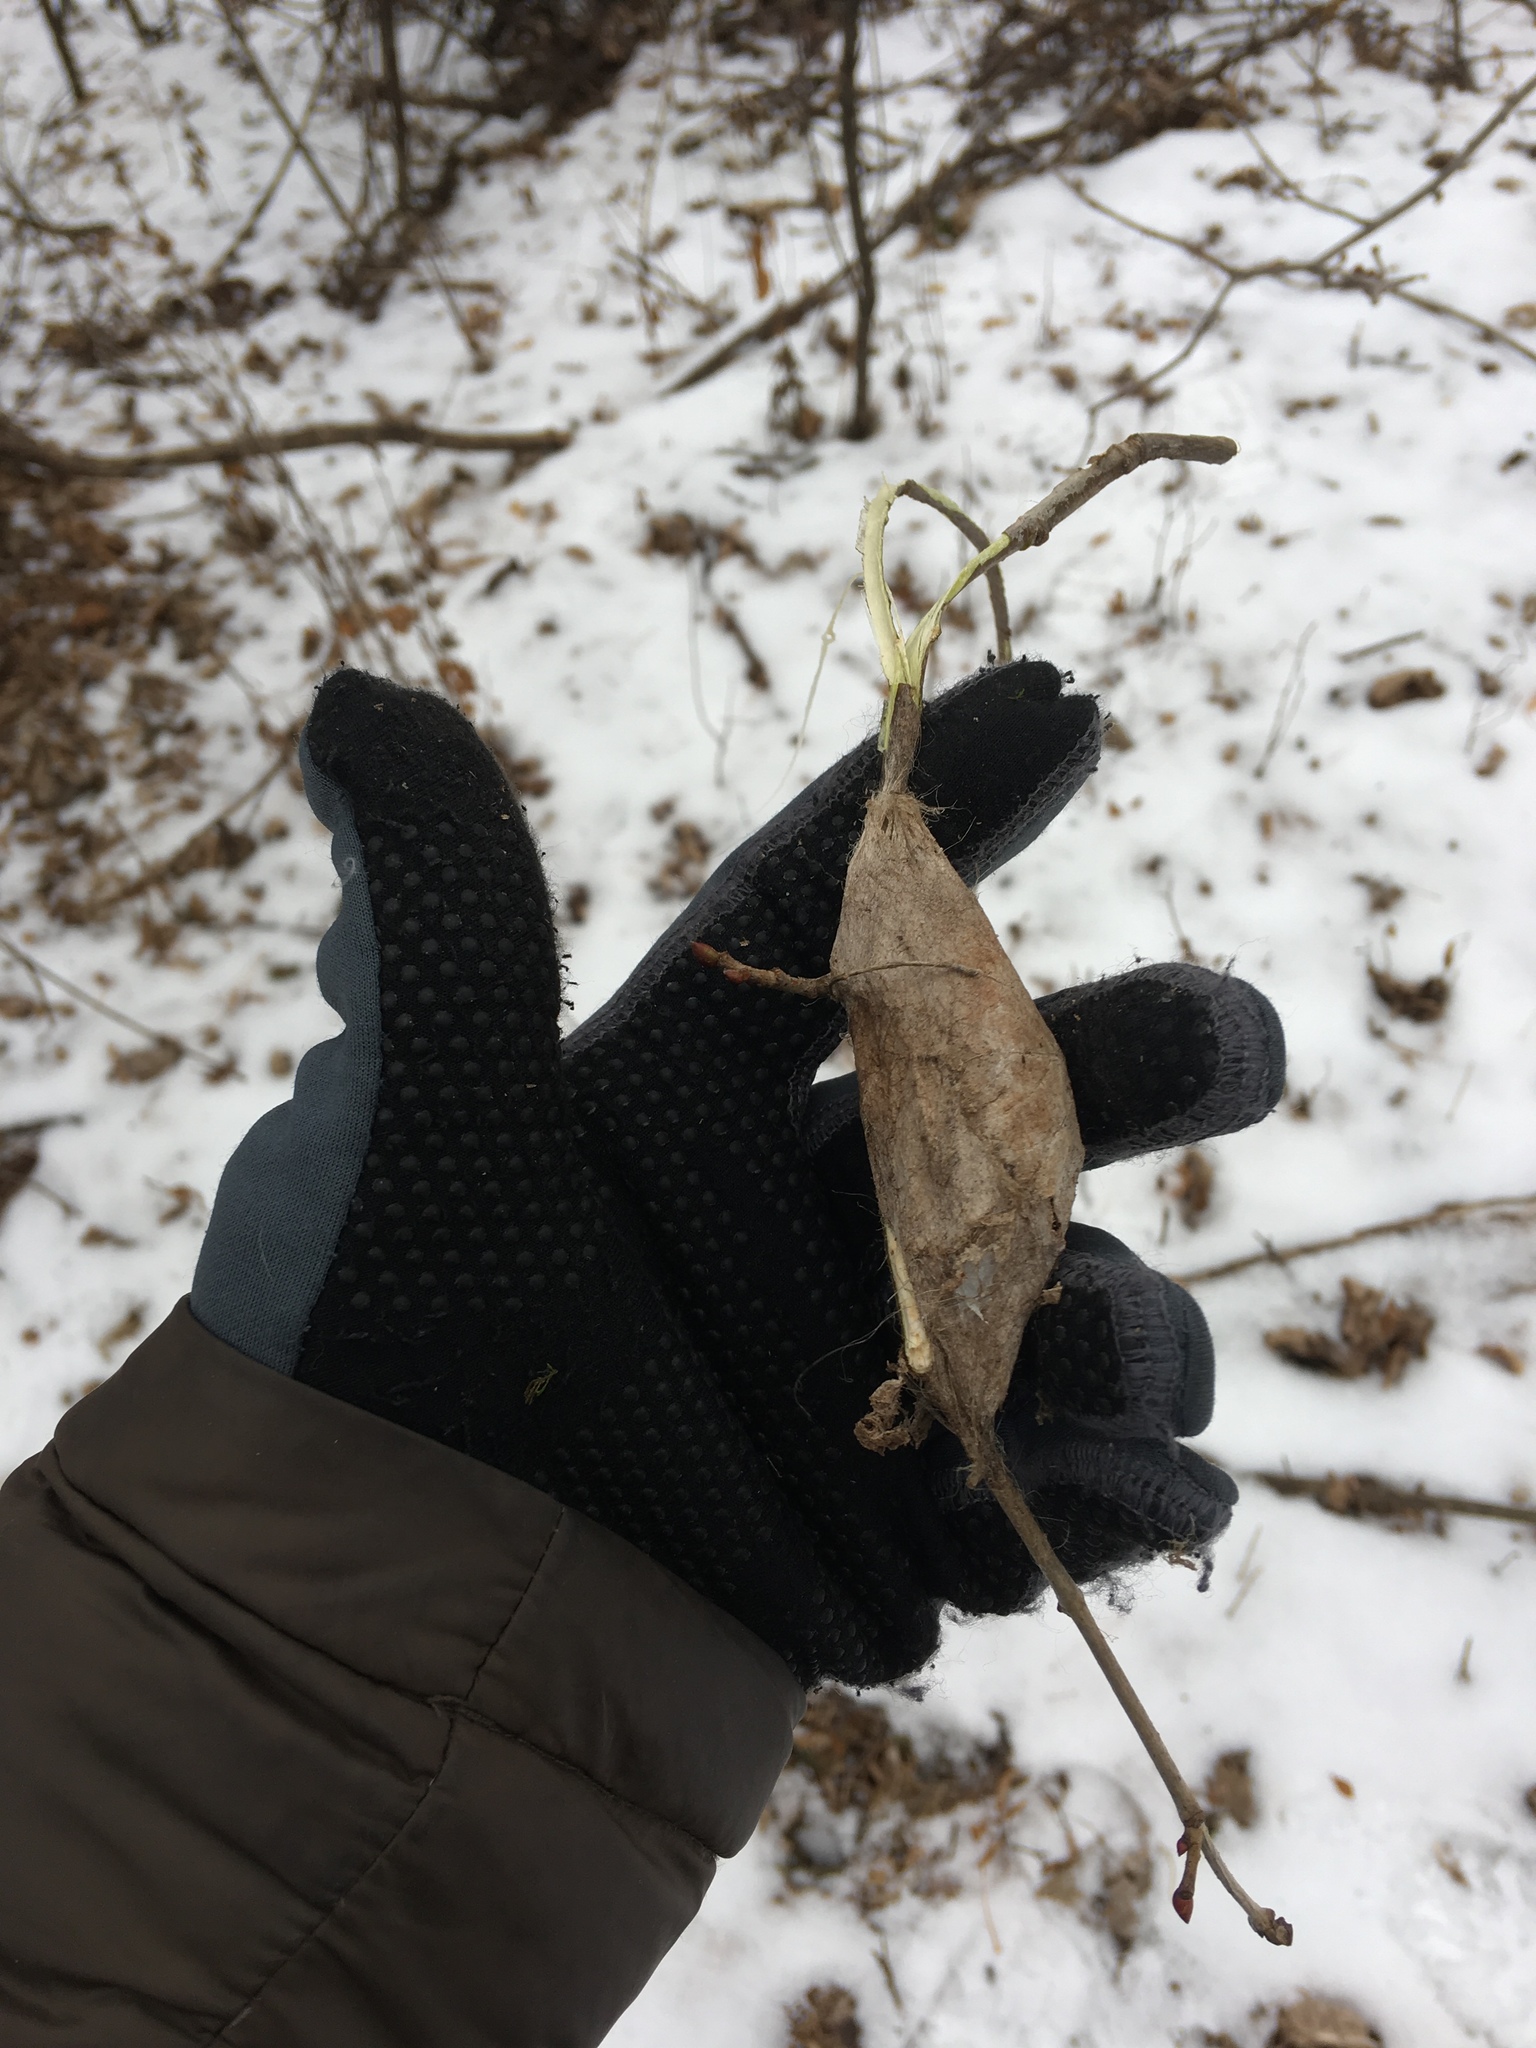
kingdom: Animalia
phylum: Arthropoda
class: Insecta
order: Lepidoptera
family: Saturniidae
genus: Hyalophora
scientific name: Hyalophora cecropia
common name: Cecropia silkmoth
